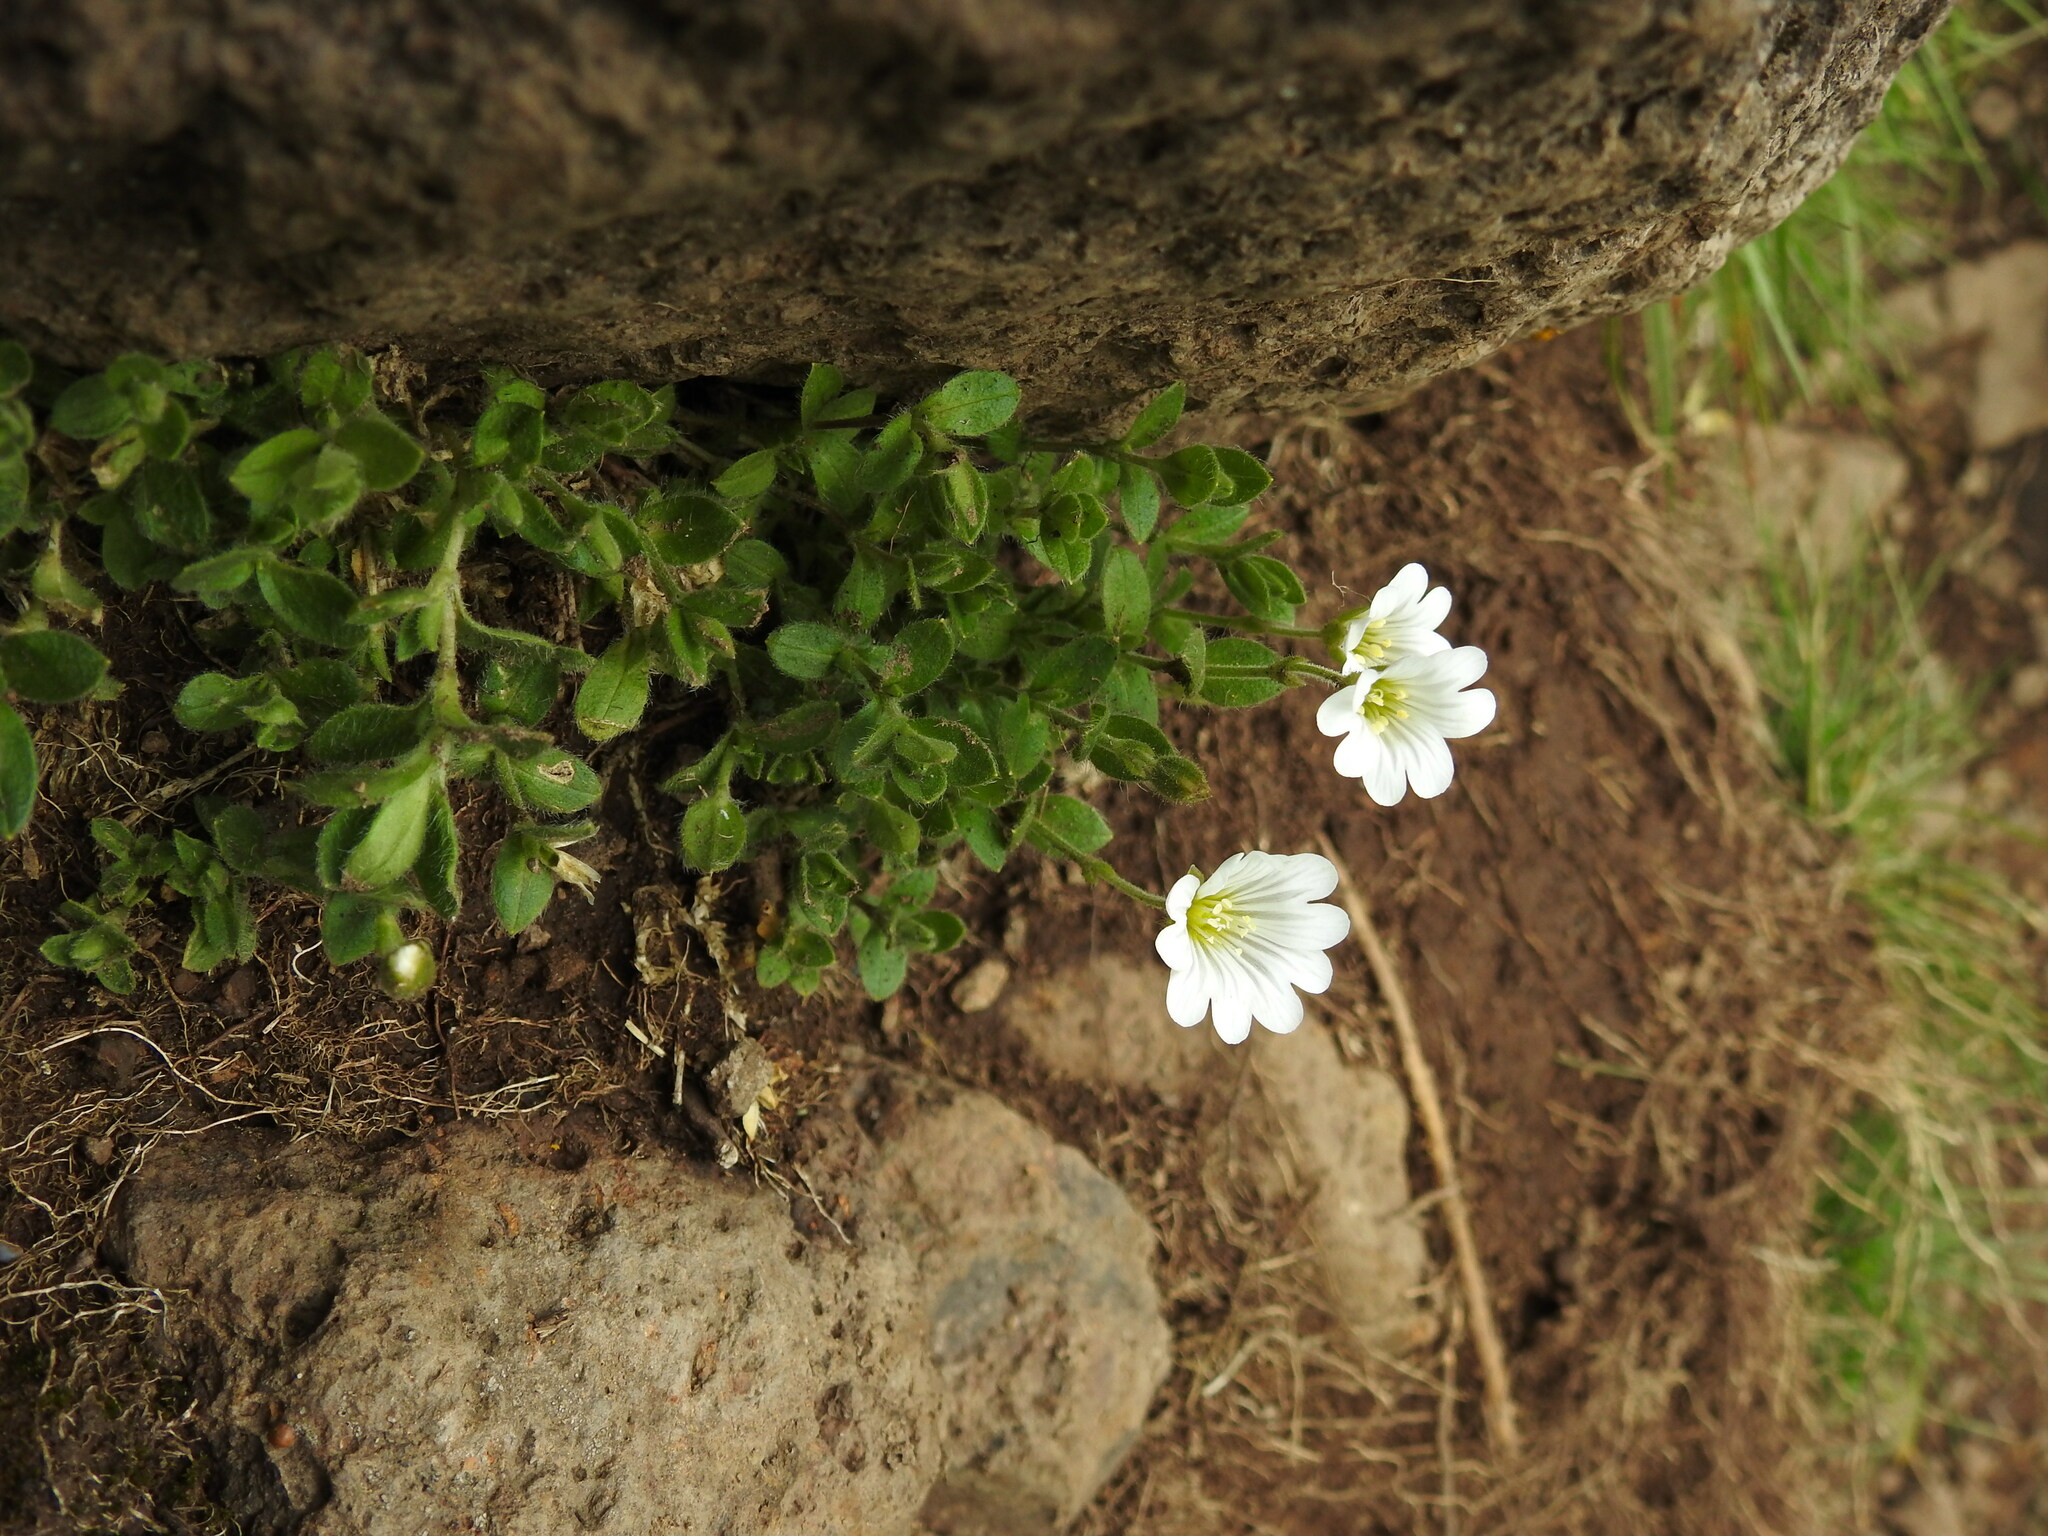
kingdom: Plantae
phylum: Tracheophyta
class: Magnoliopsida
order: Caryophyllales
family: Caryophyllaceae
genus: Cerastium
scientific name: Cerastium alpinum
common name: Alpine mouse-ear
